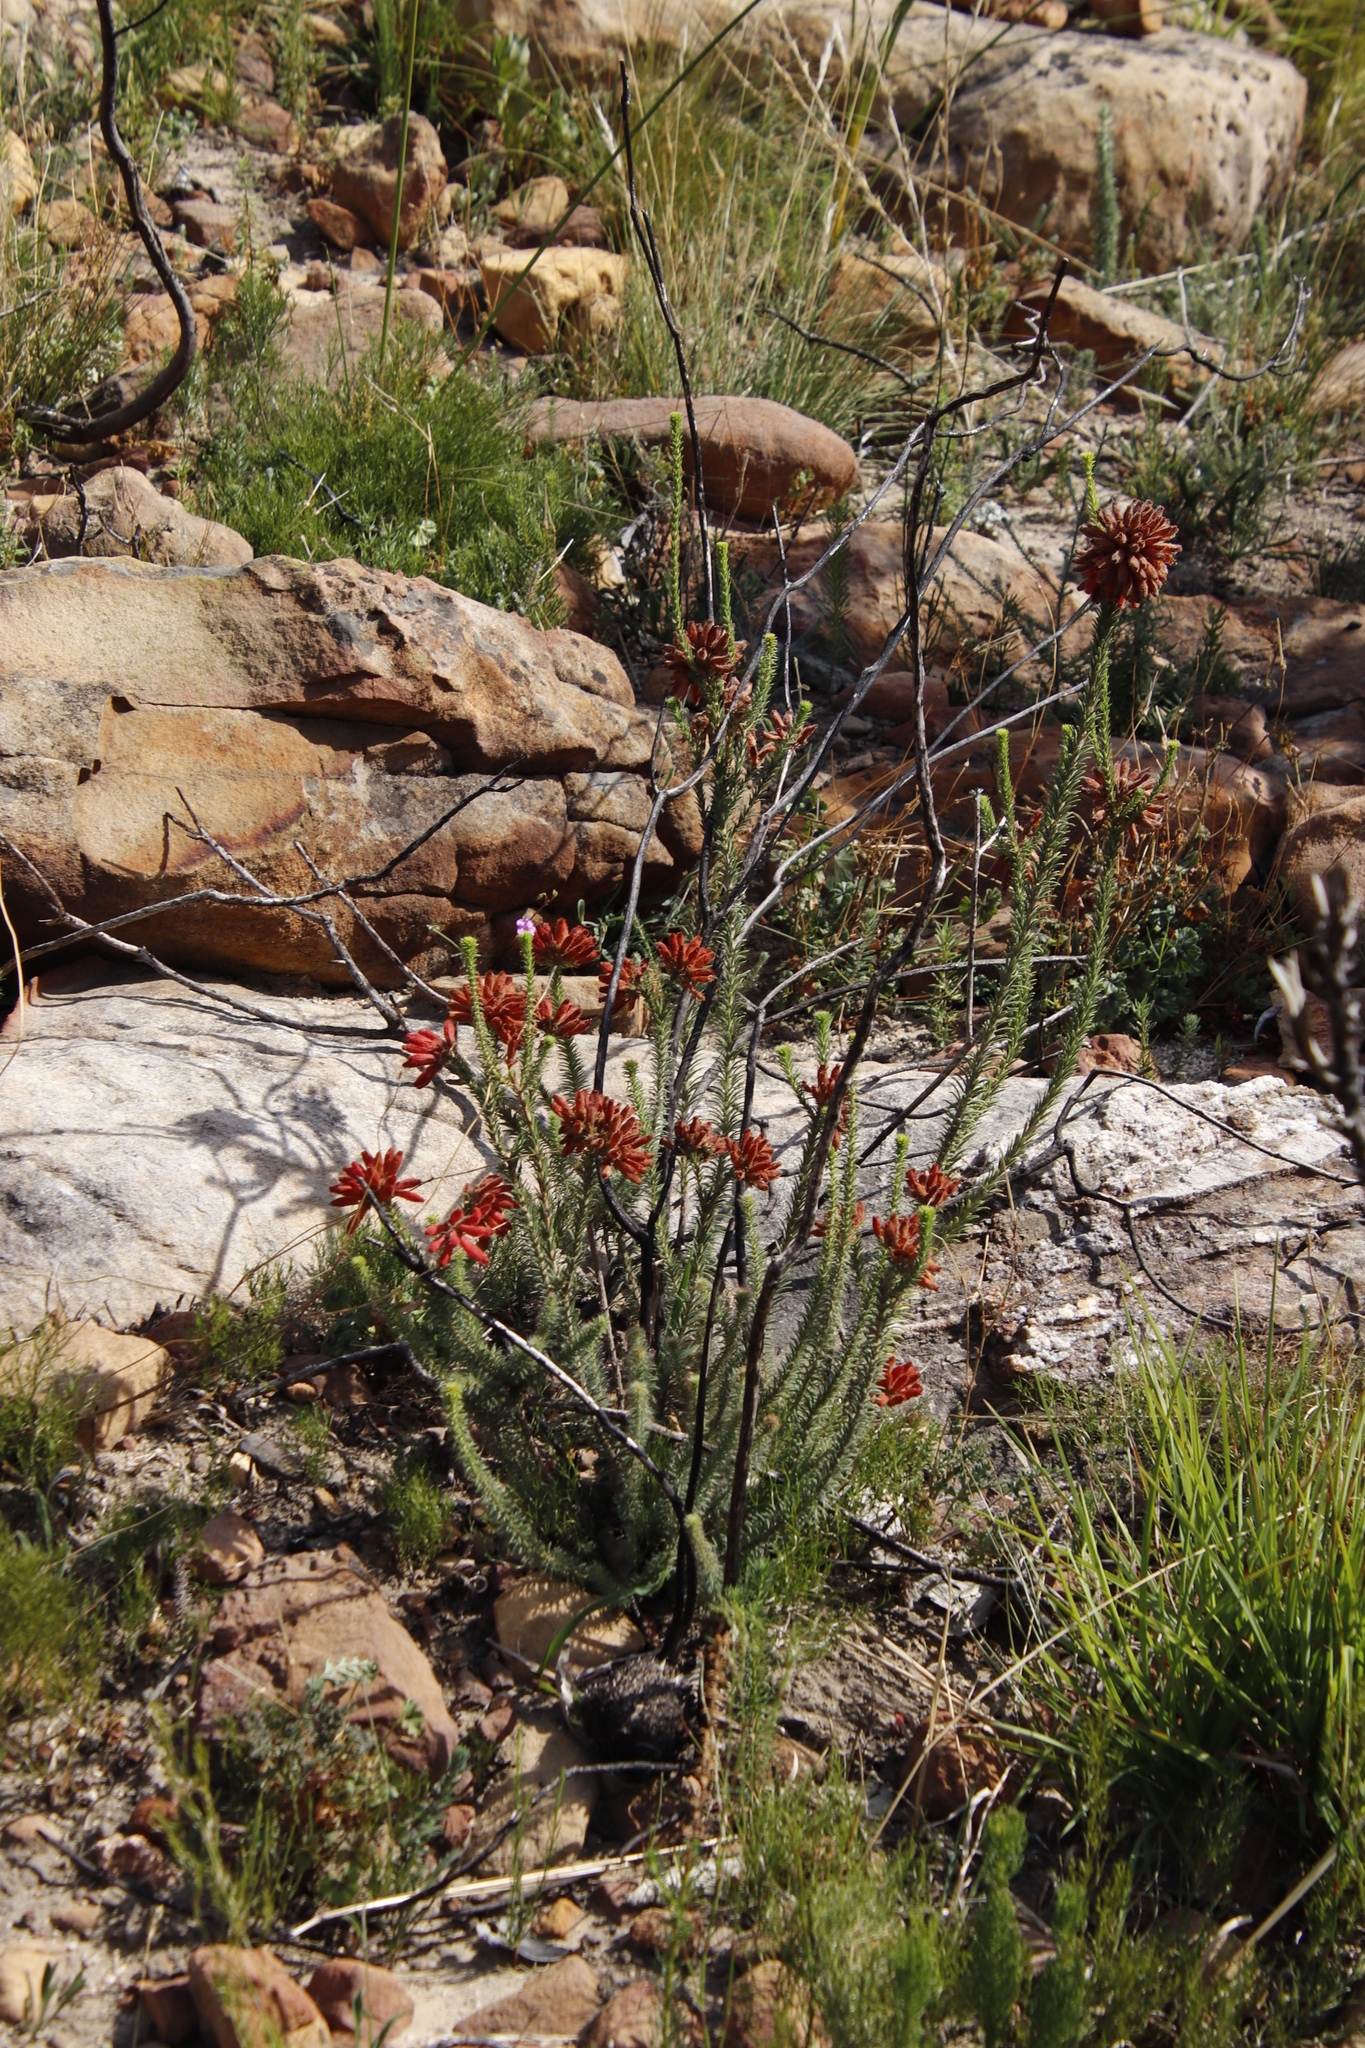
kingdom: Plantae
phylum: Tracheophyta
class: Magnoliopsida
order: Ericales
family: Ericaceae
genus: Erica
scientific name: Erica cerinthoides
